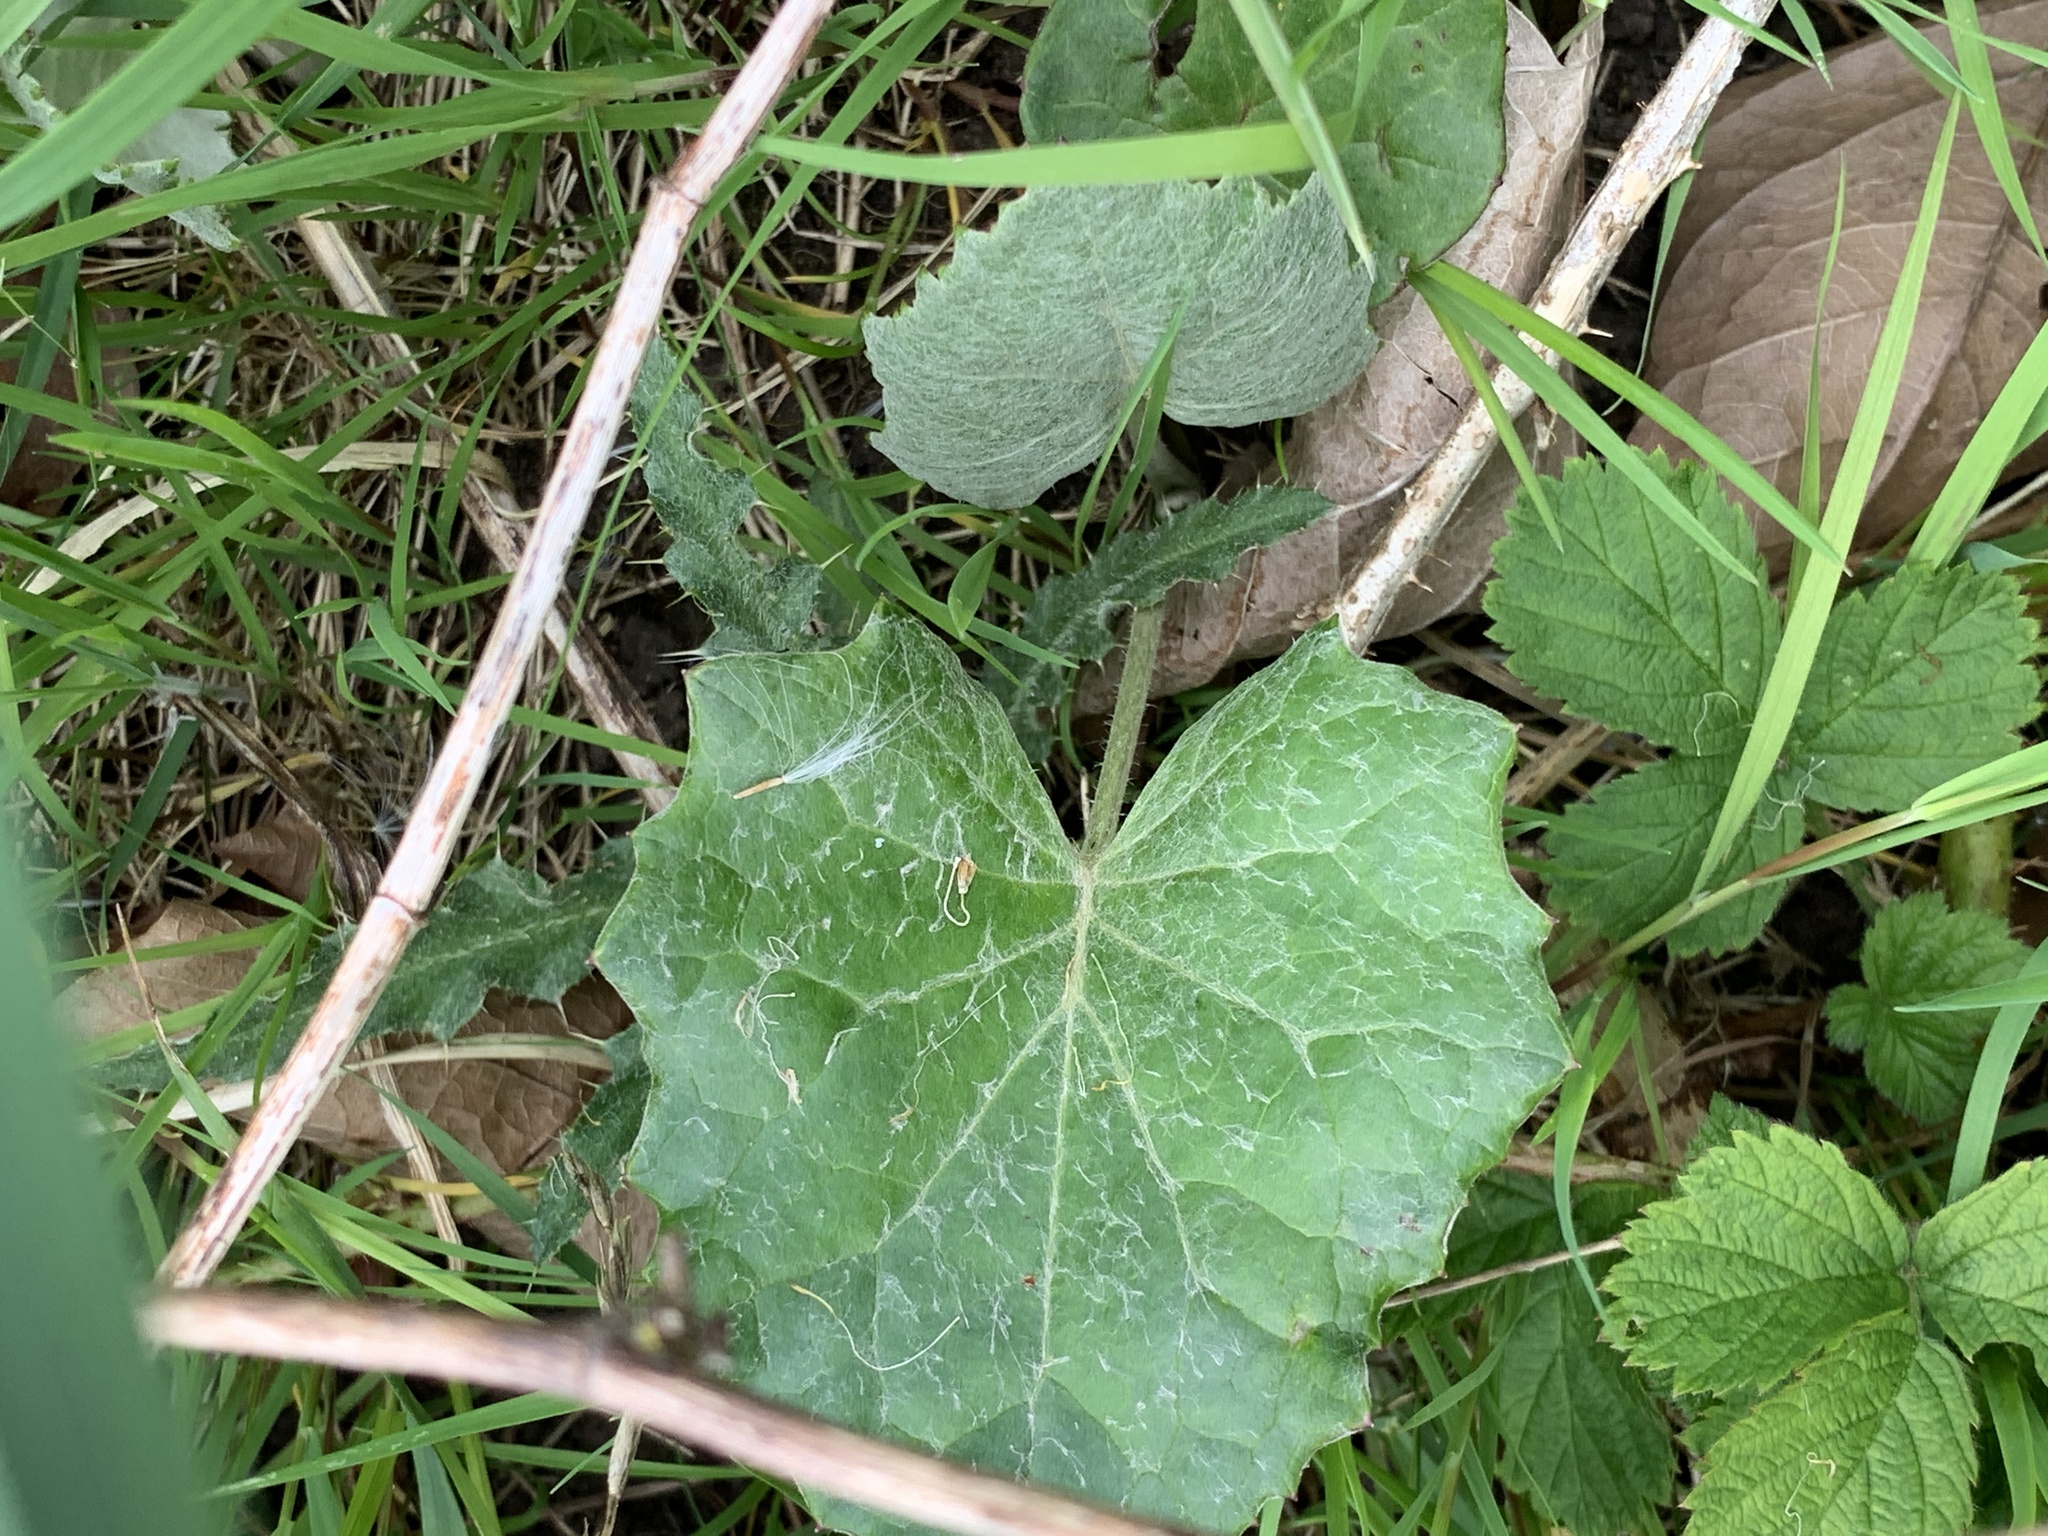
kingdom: Plantae
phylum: Tracheophyta
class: Magnoliopsida
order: Asterales
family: Asteraceae
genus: Tussilago
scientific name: Tussilago farfara
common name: Coltsfoot
